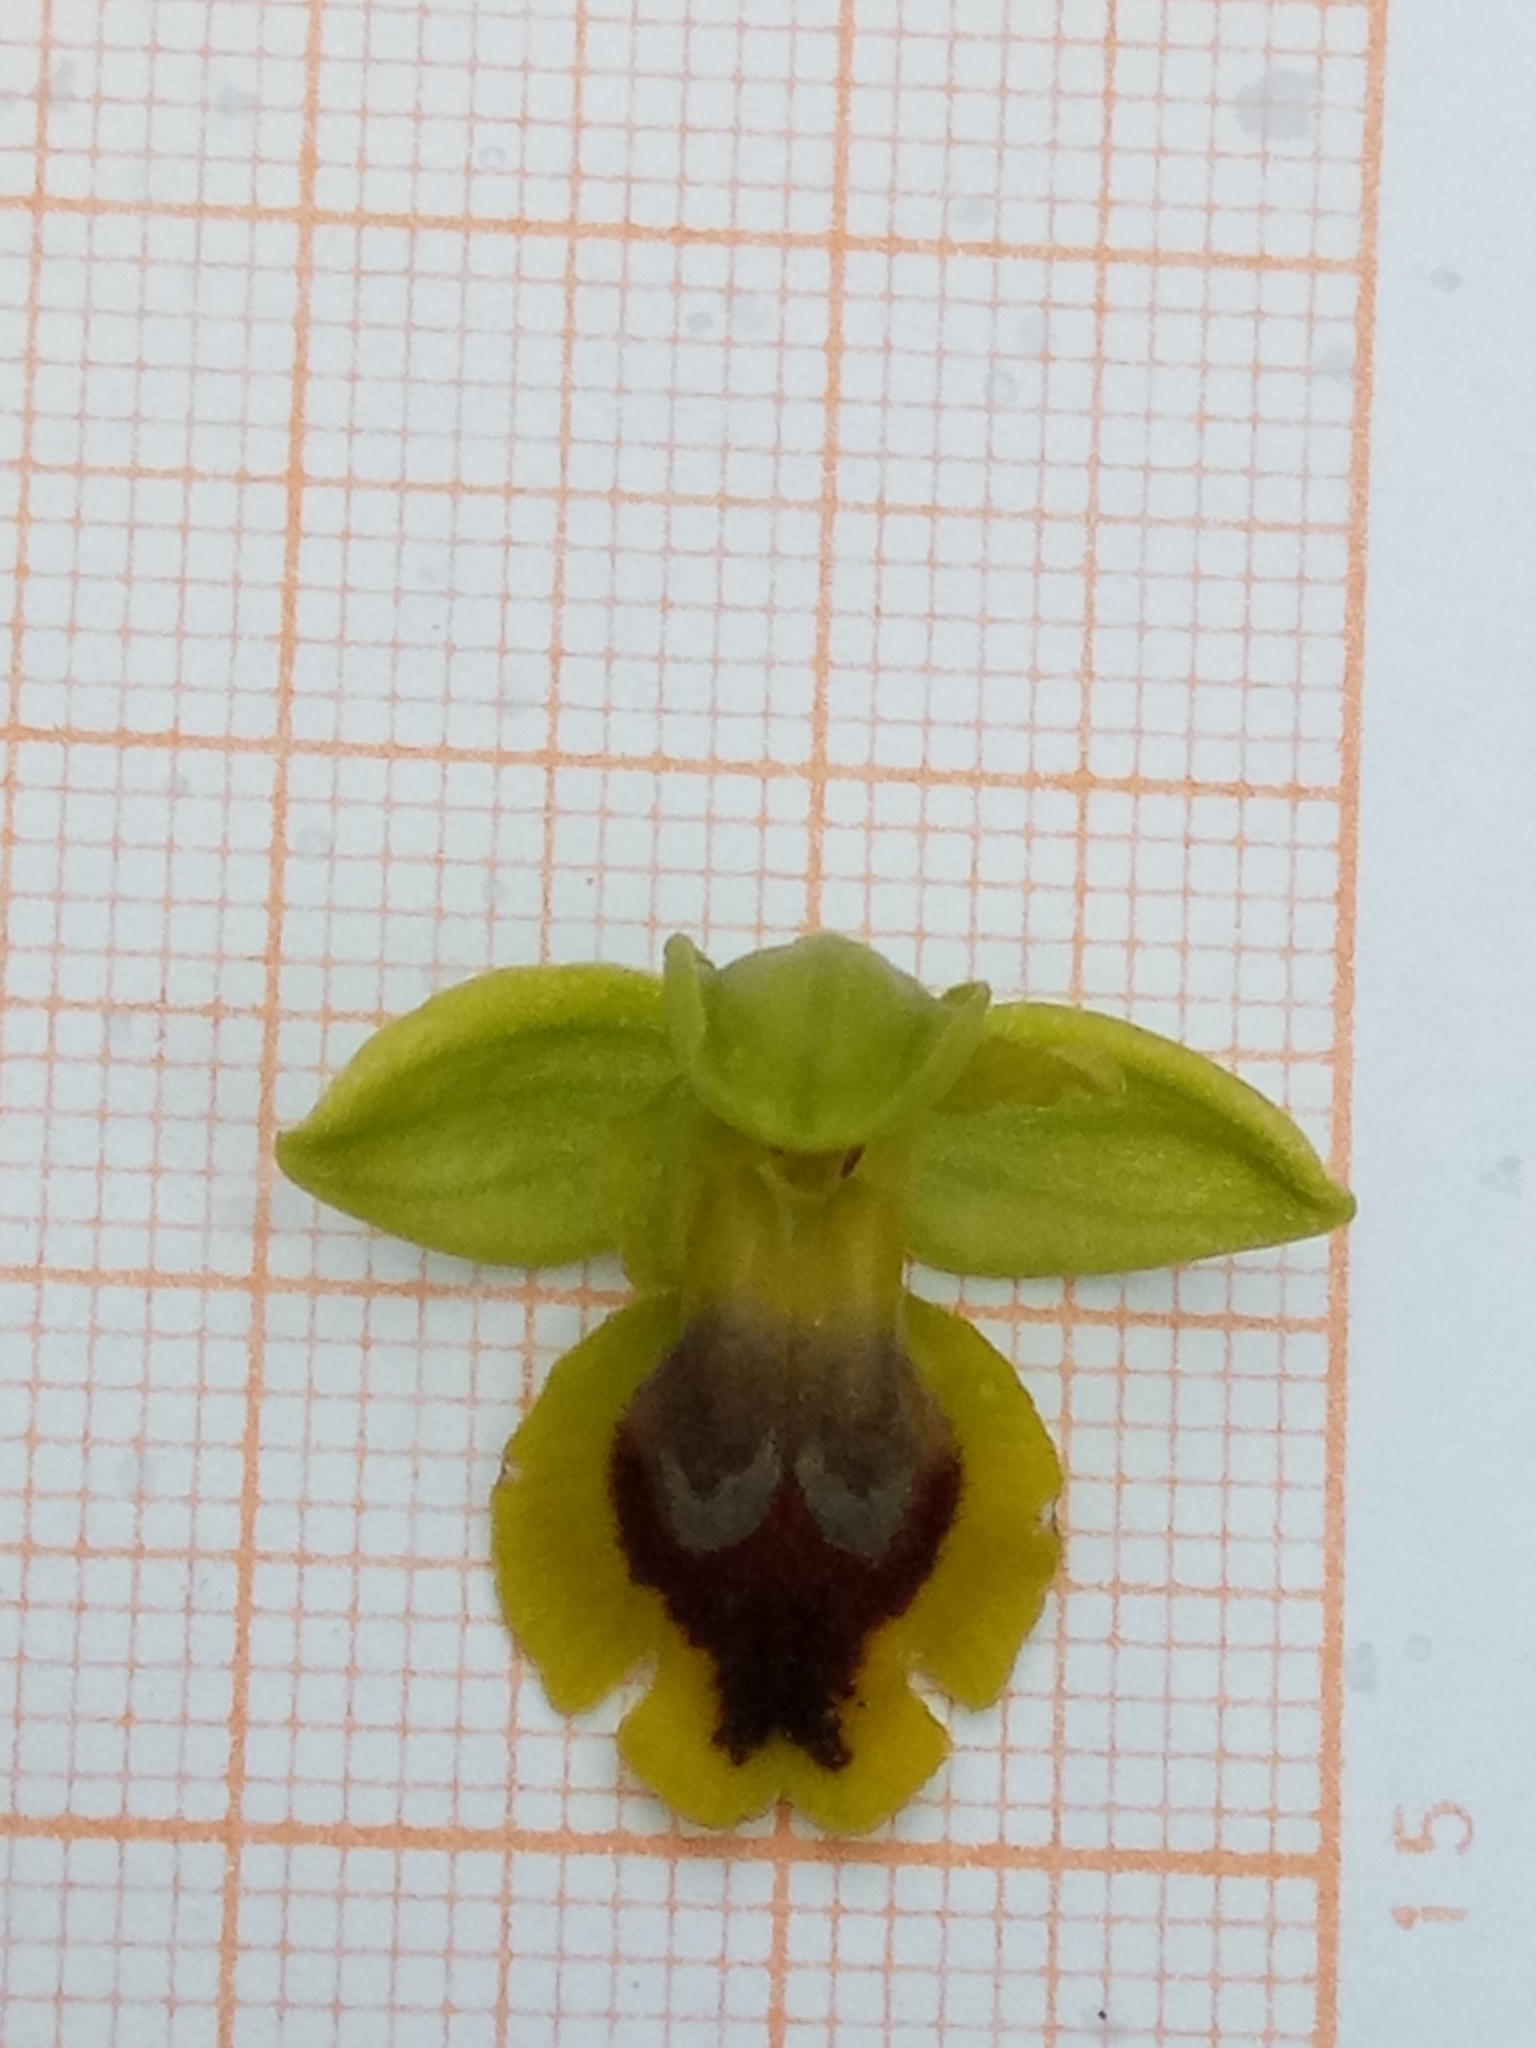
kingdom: Plantae
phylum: Tracheophyta
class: Liliopsida
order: Asparagales
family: Orchidaceae
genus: Ophrys
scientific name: Ophrys battandieri
